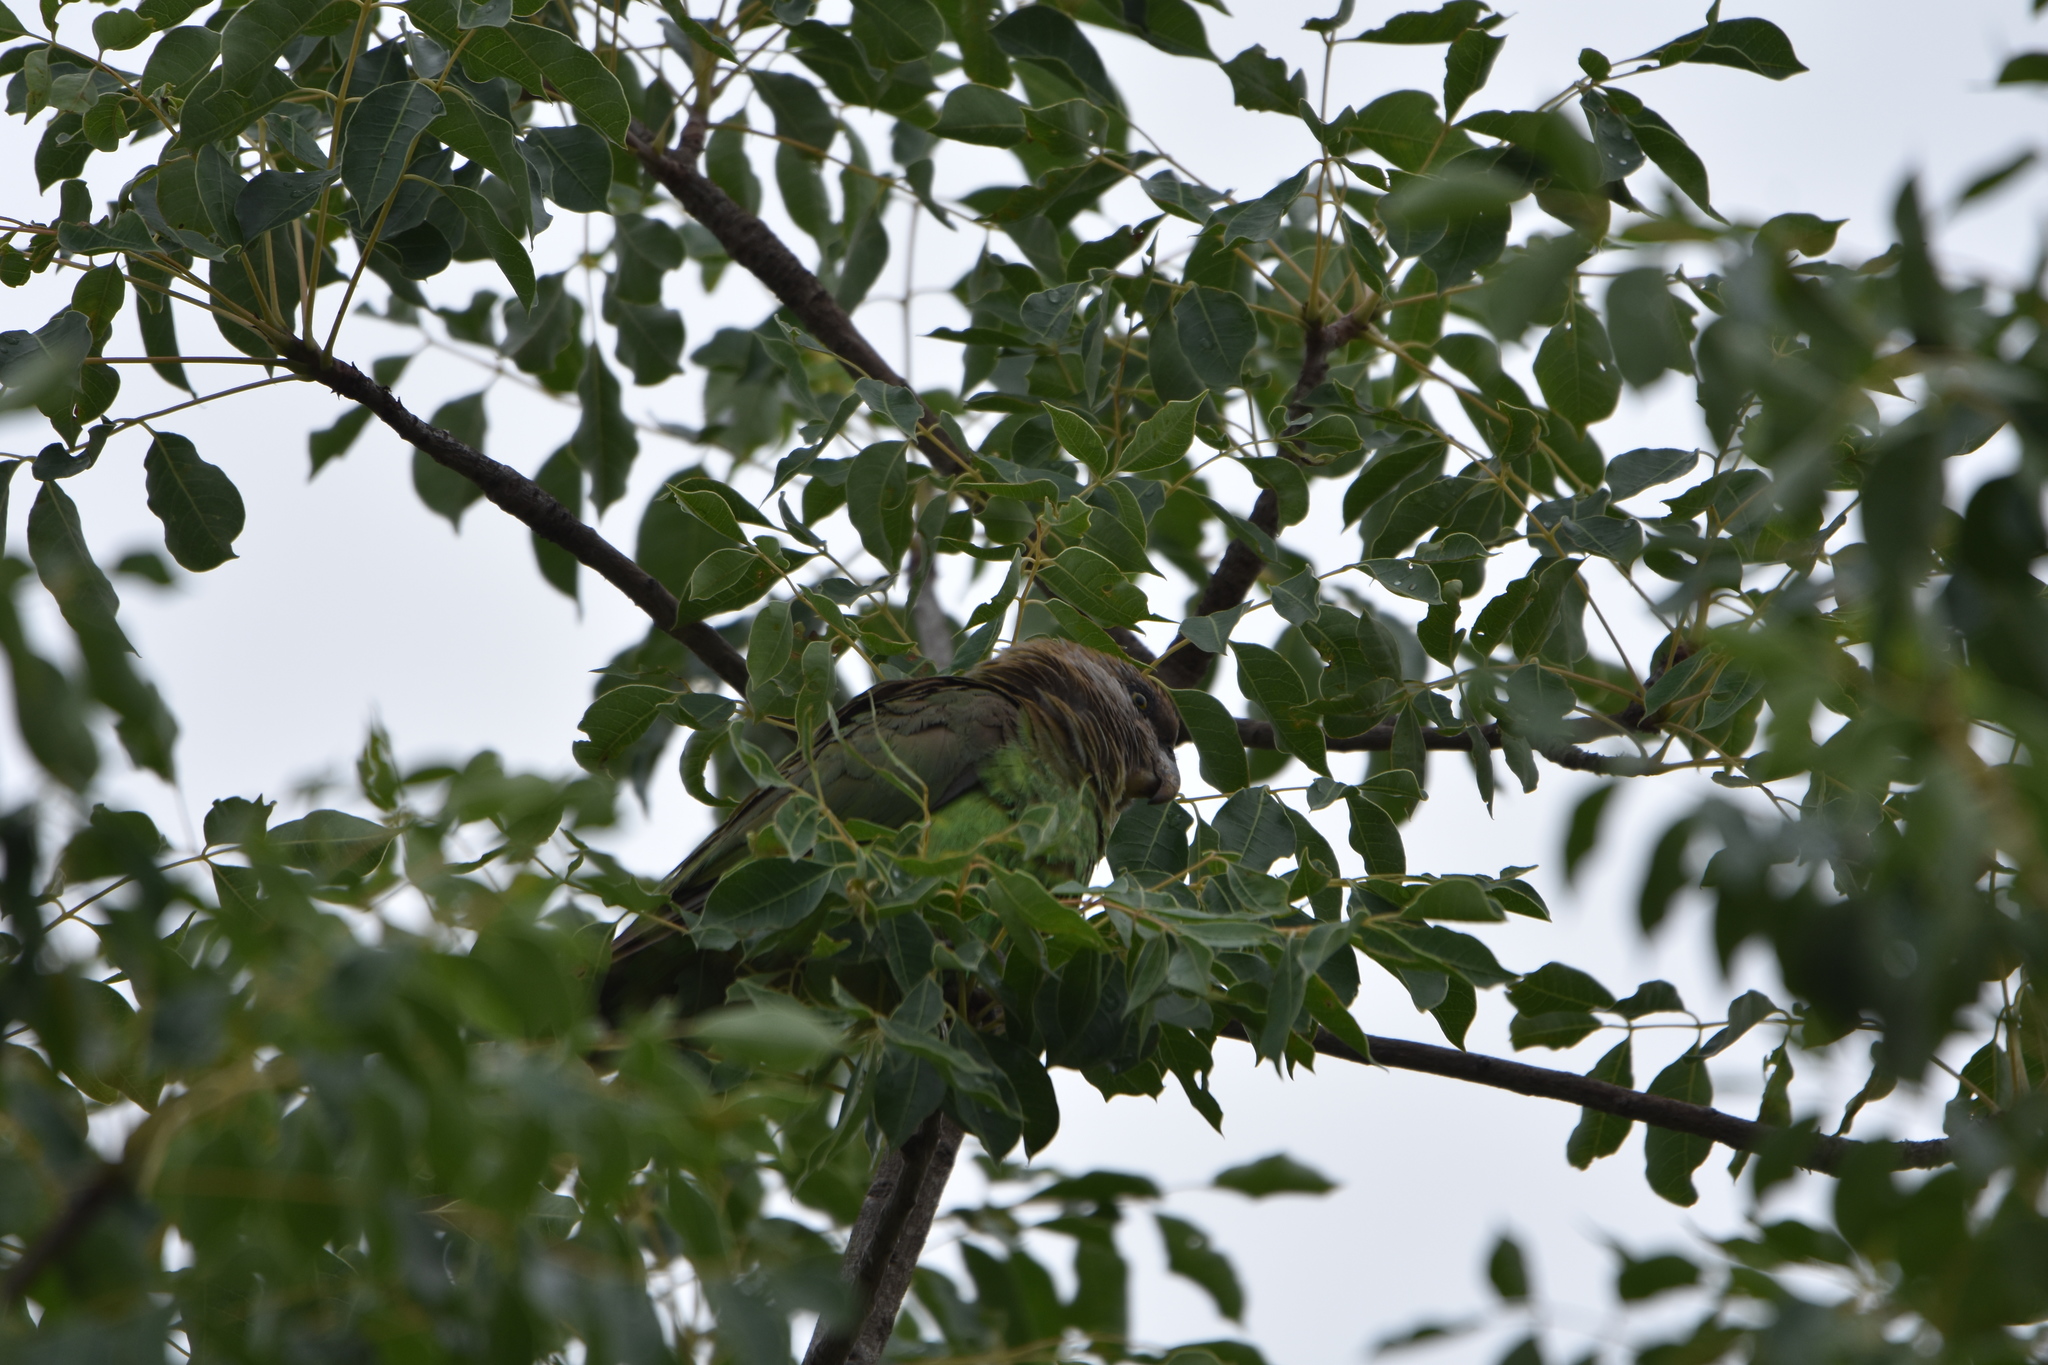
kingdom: Animalia
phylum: Chordata
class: Aves
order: Psittaciformes
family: Psittacidae
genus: Poicephalus
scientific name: Poicephalus cryptoxanthus
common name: Brown-headed parrot
